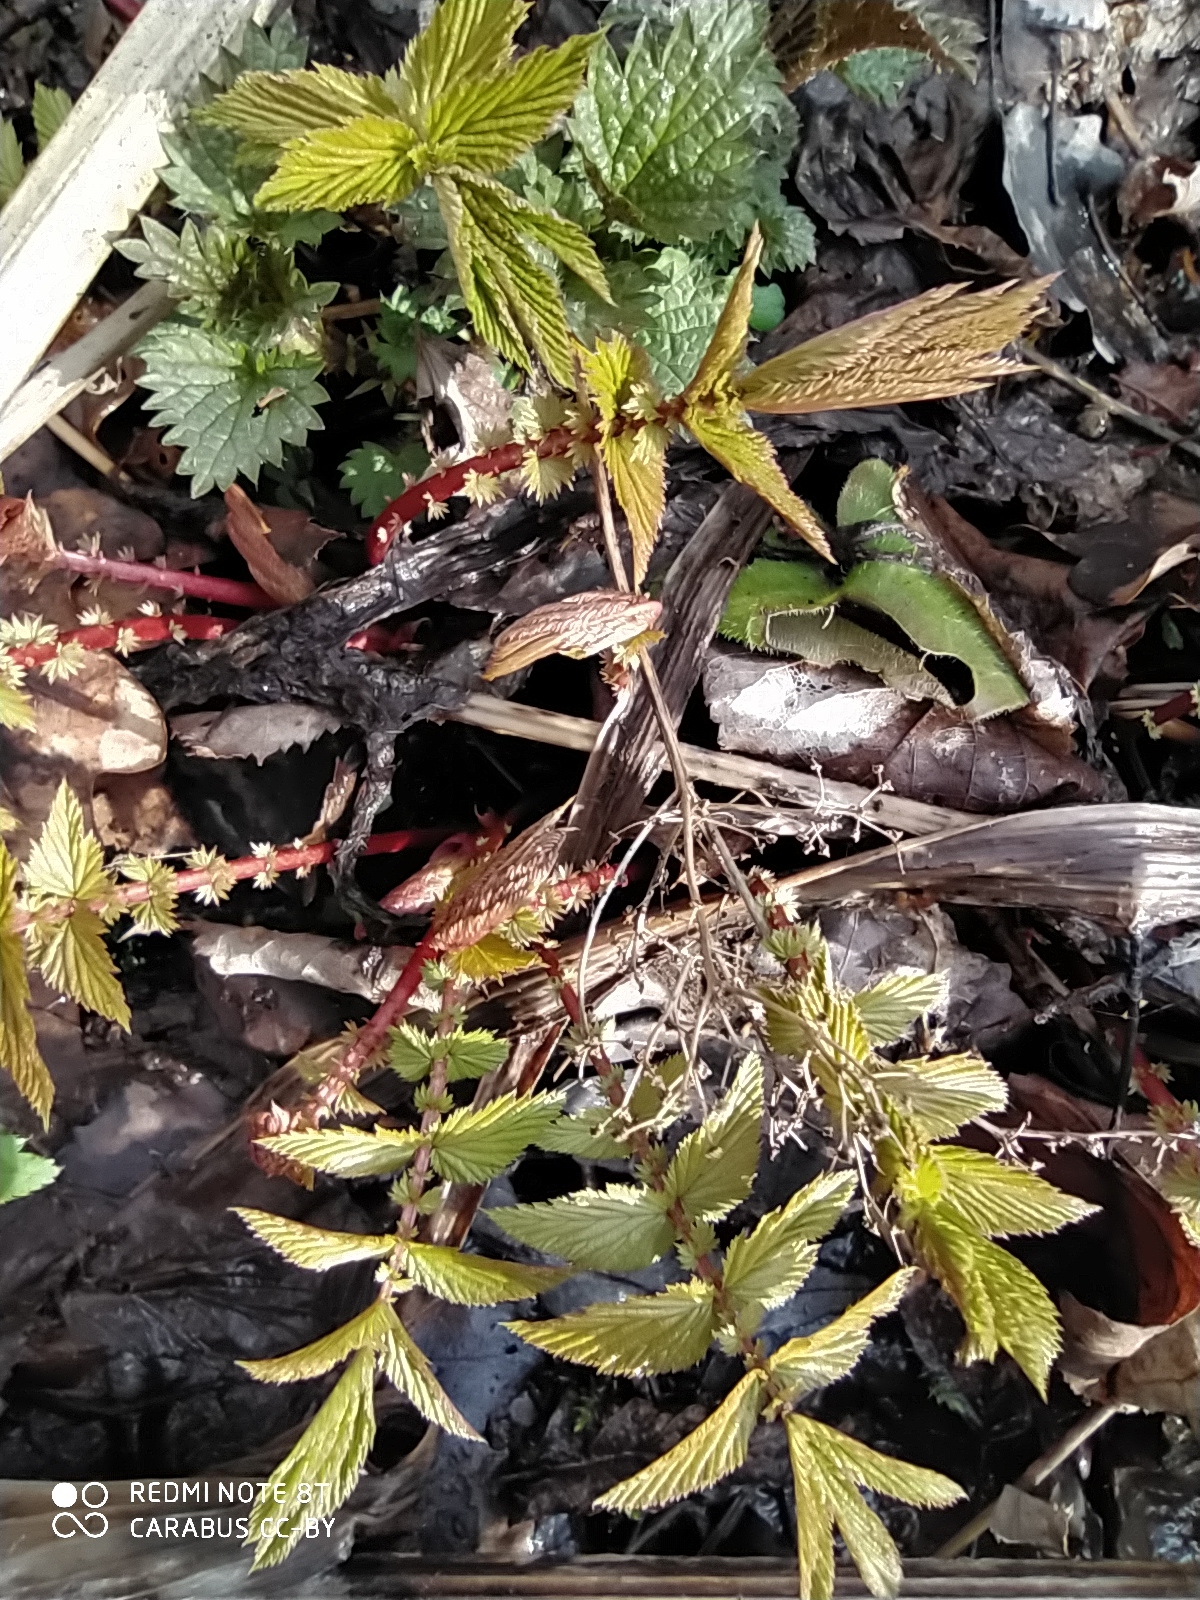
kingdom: Plantae
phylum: Tracheophyta
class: Magnoliopsida
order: Rosales
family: Rosaceae
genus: Filipendula
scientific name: Filipendula ulmaria
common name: Meadowsweet
